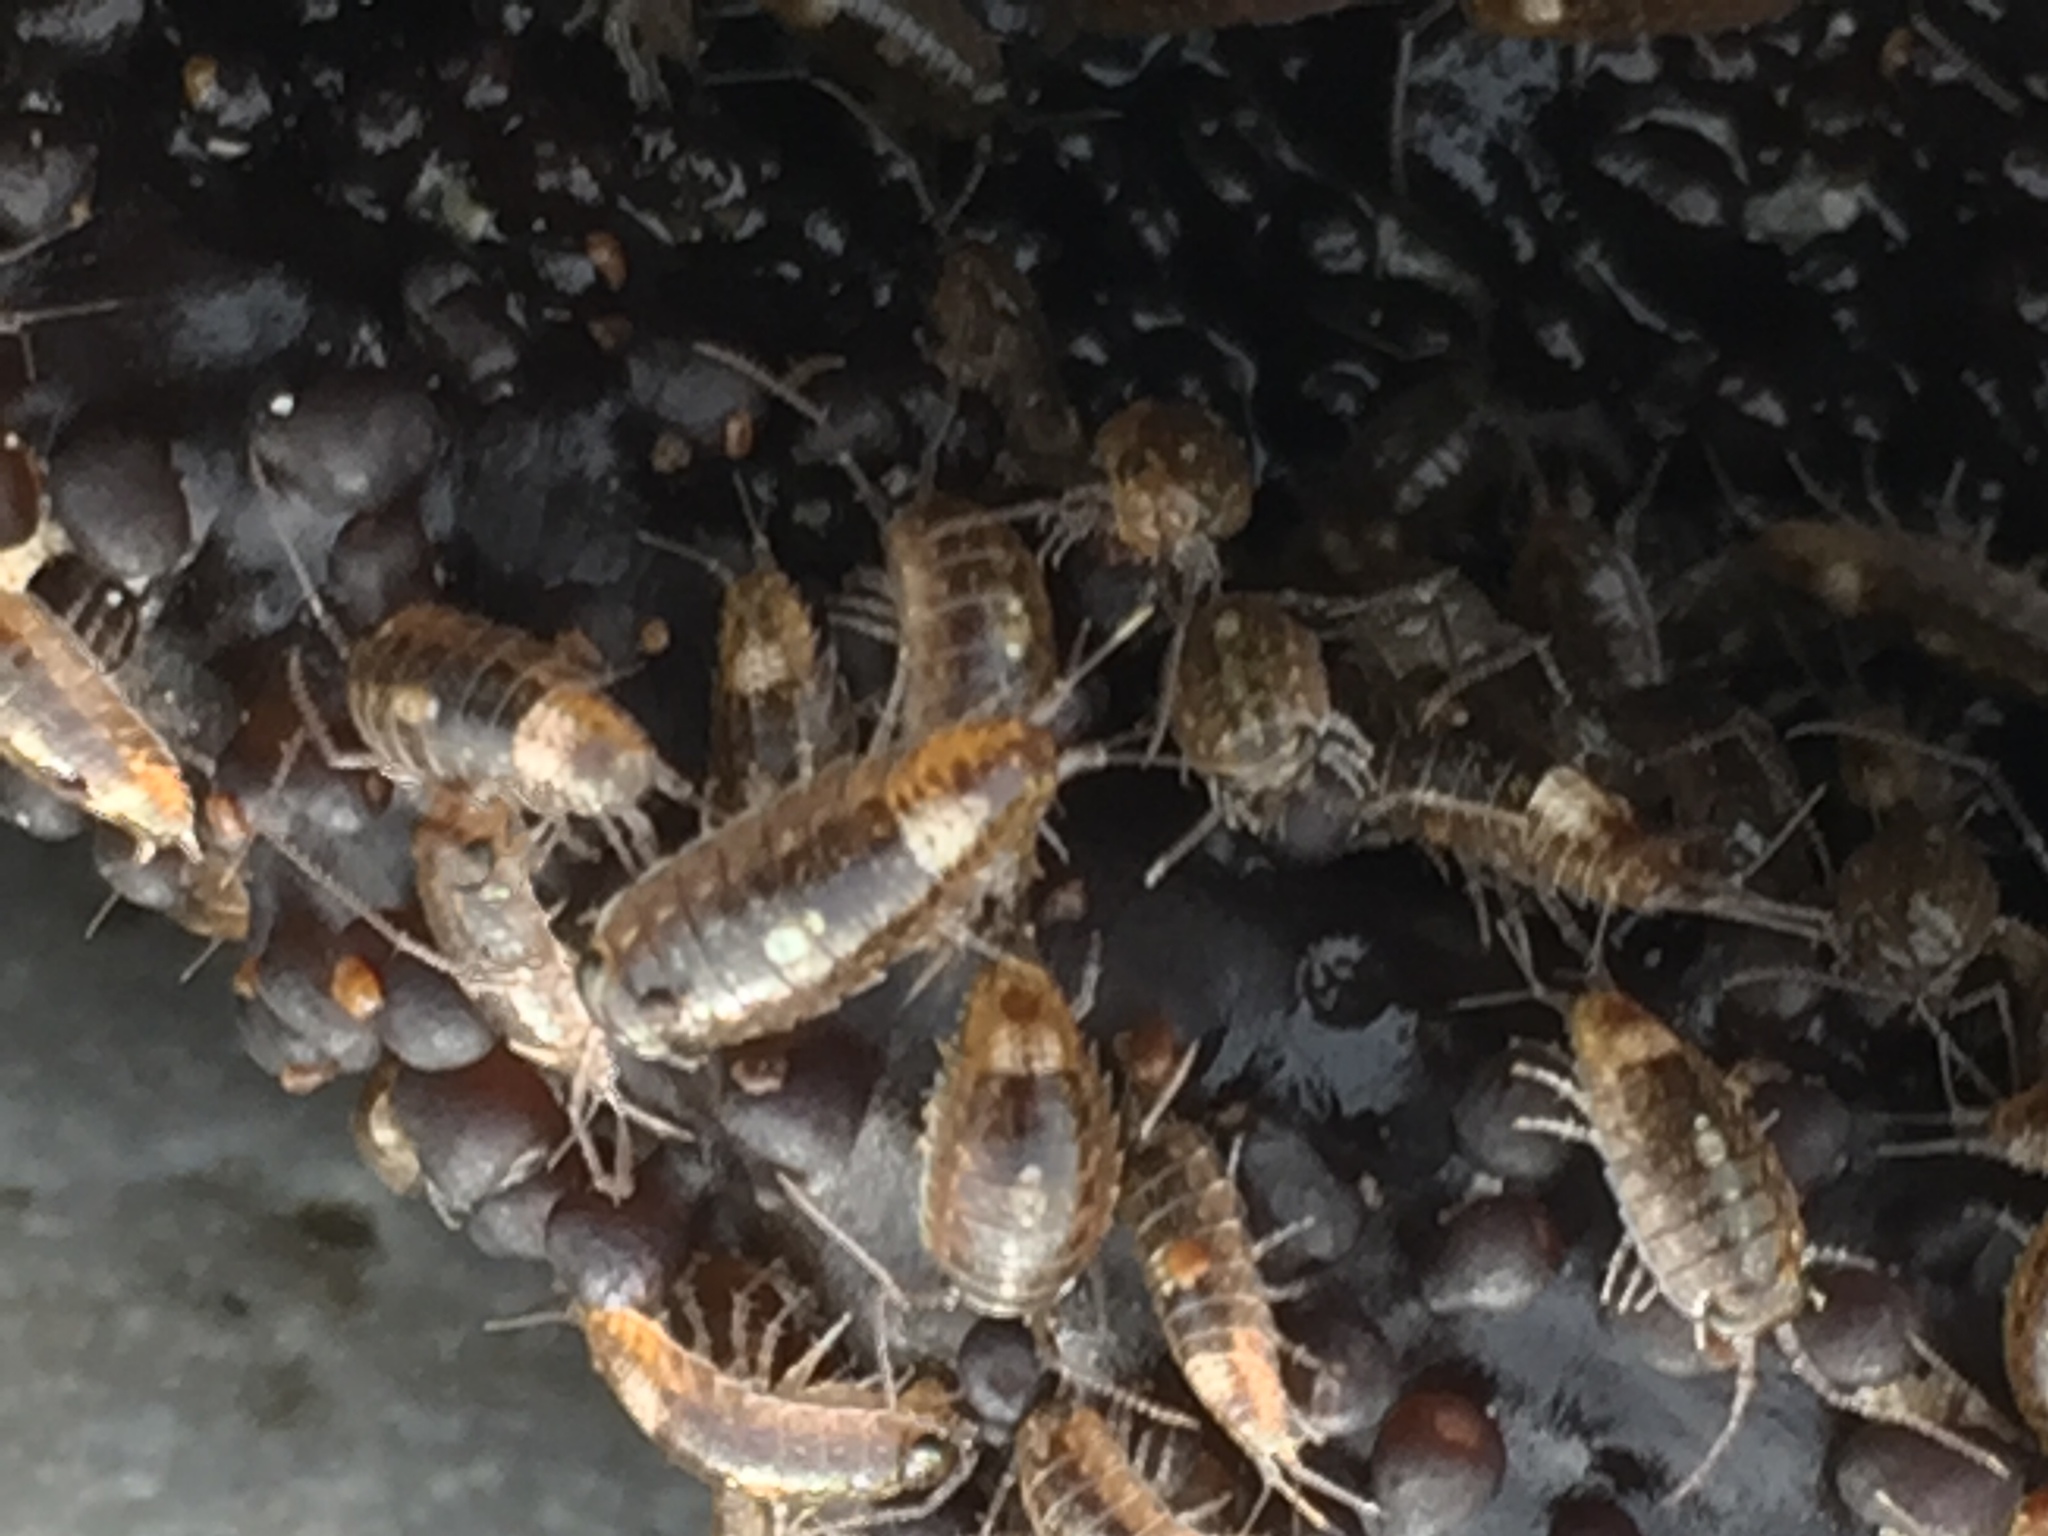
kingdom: Animalia
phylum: Arthropoda
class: Malacostraca
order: Isopoda
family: Ligiidae
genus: Ligia
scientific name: Ligia glabrata
